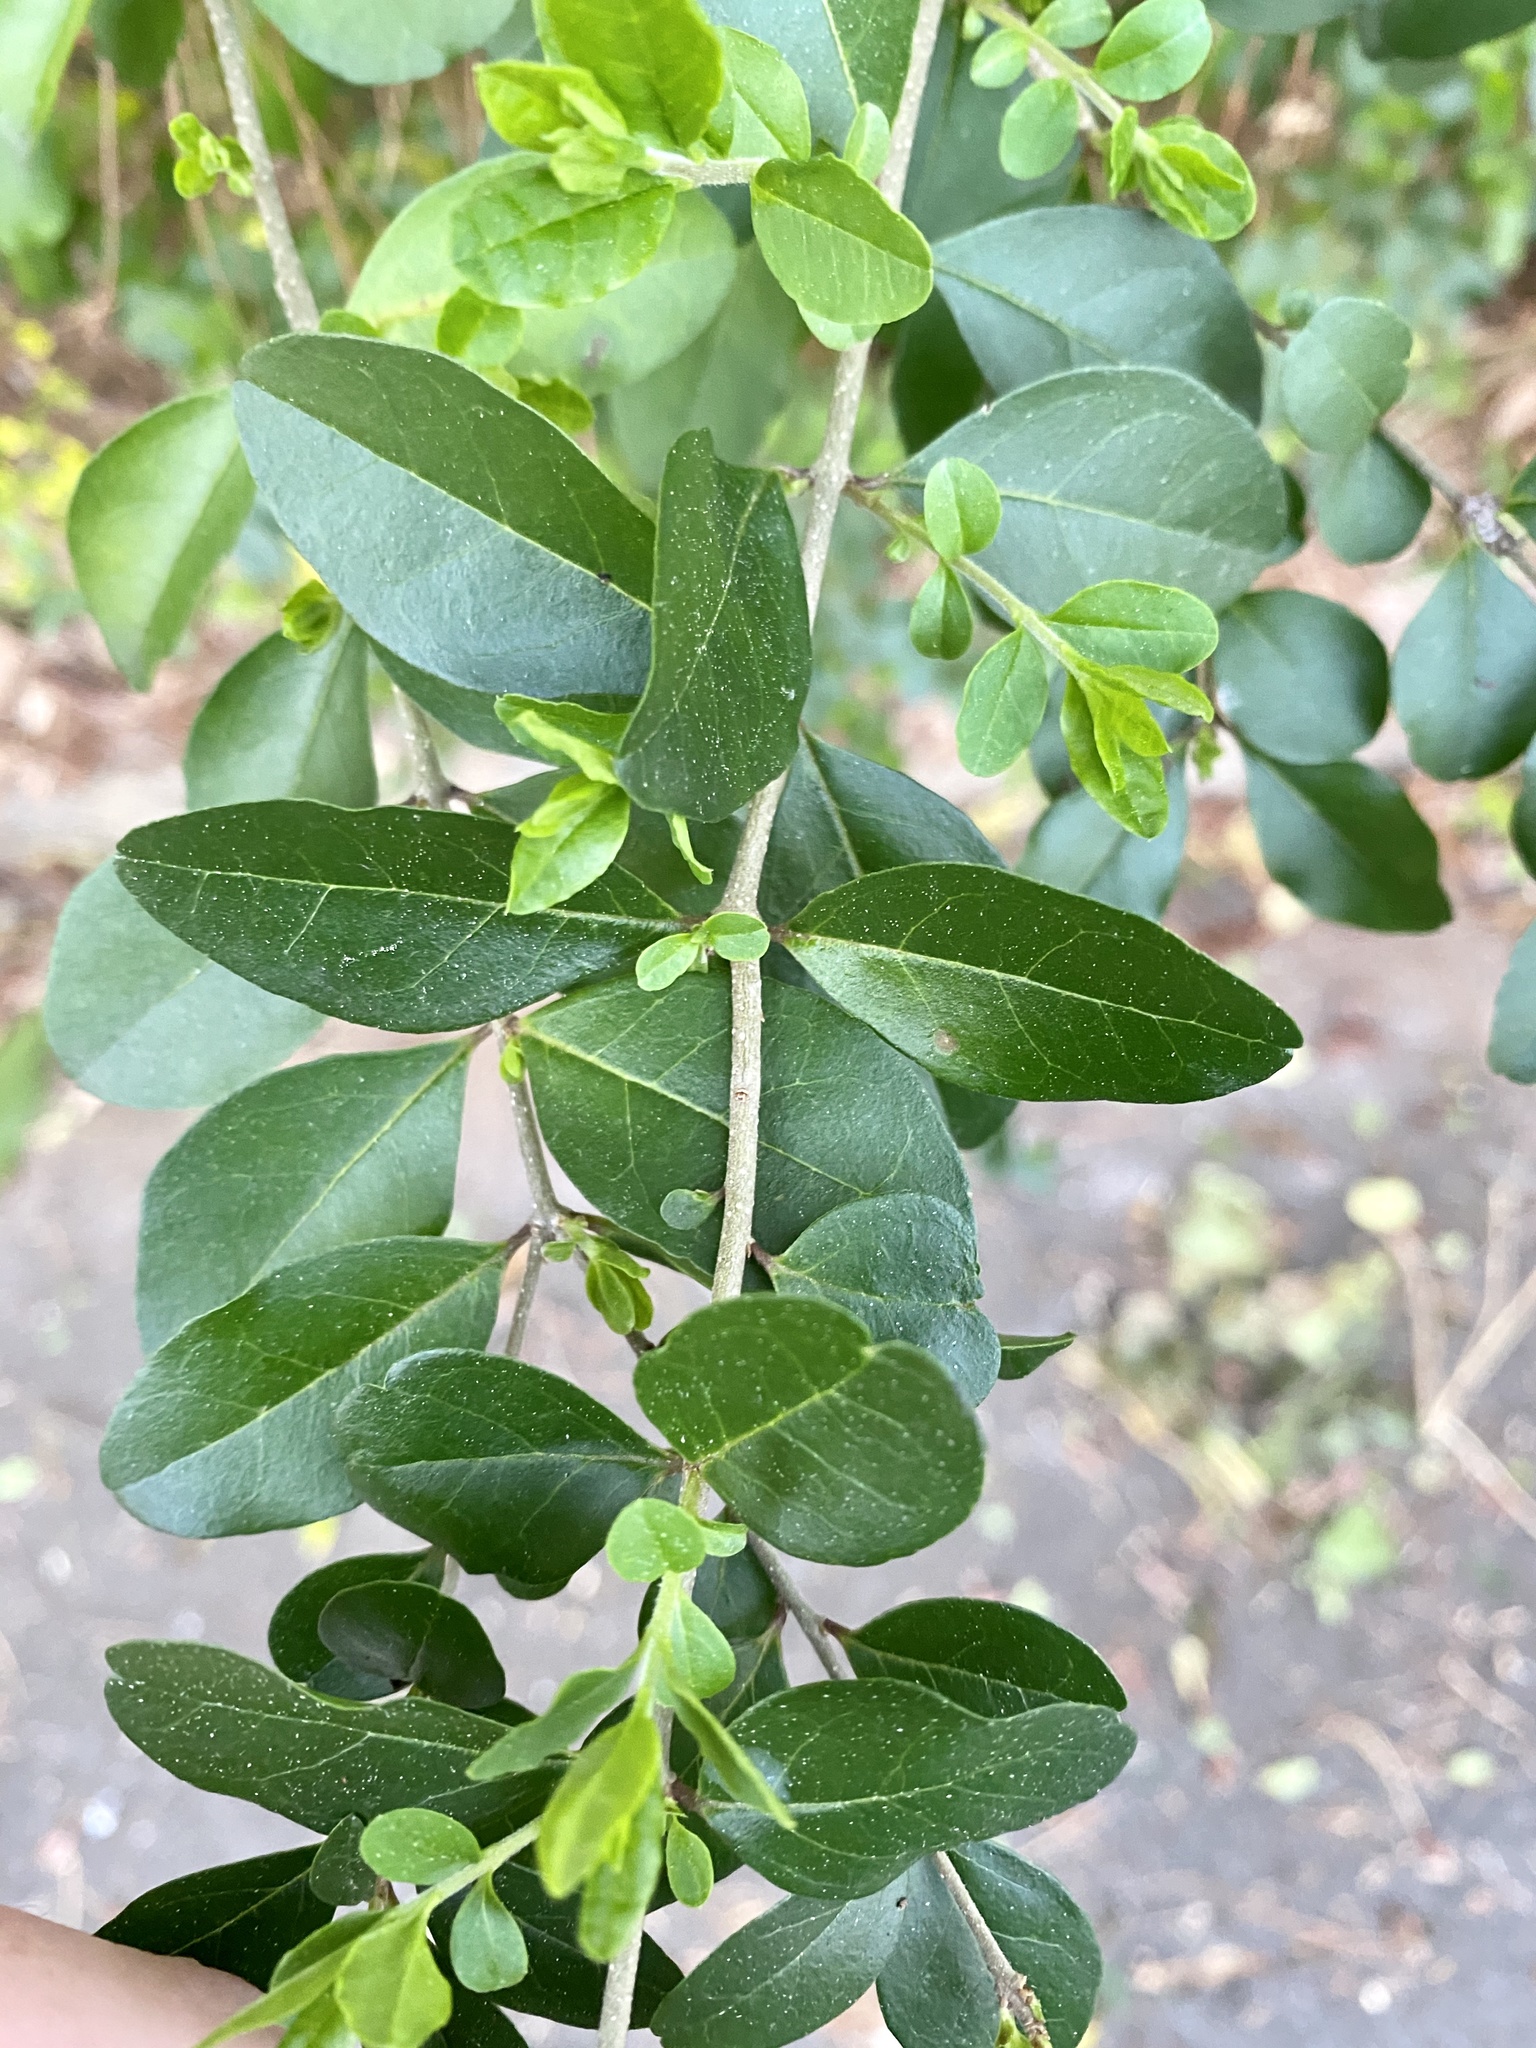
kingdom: Plantae
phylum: Tracheophyta
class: Magnoliopsida
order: Lamiales
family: Oleaceae
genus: Ligustrum
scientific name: Ligustrum sinense
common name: Chinese privet
